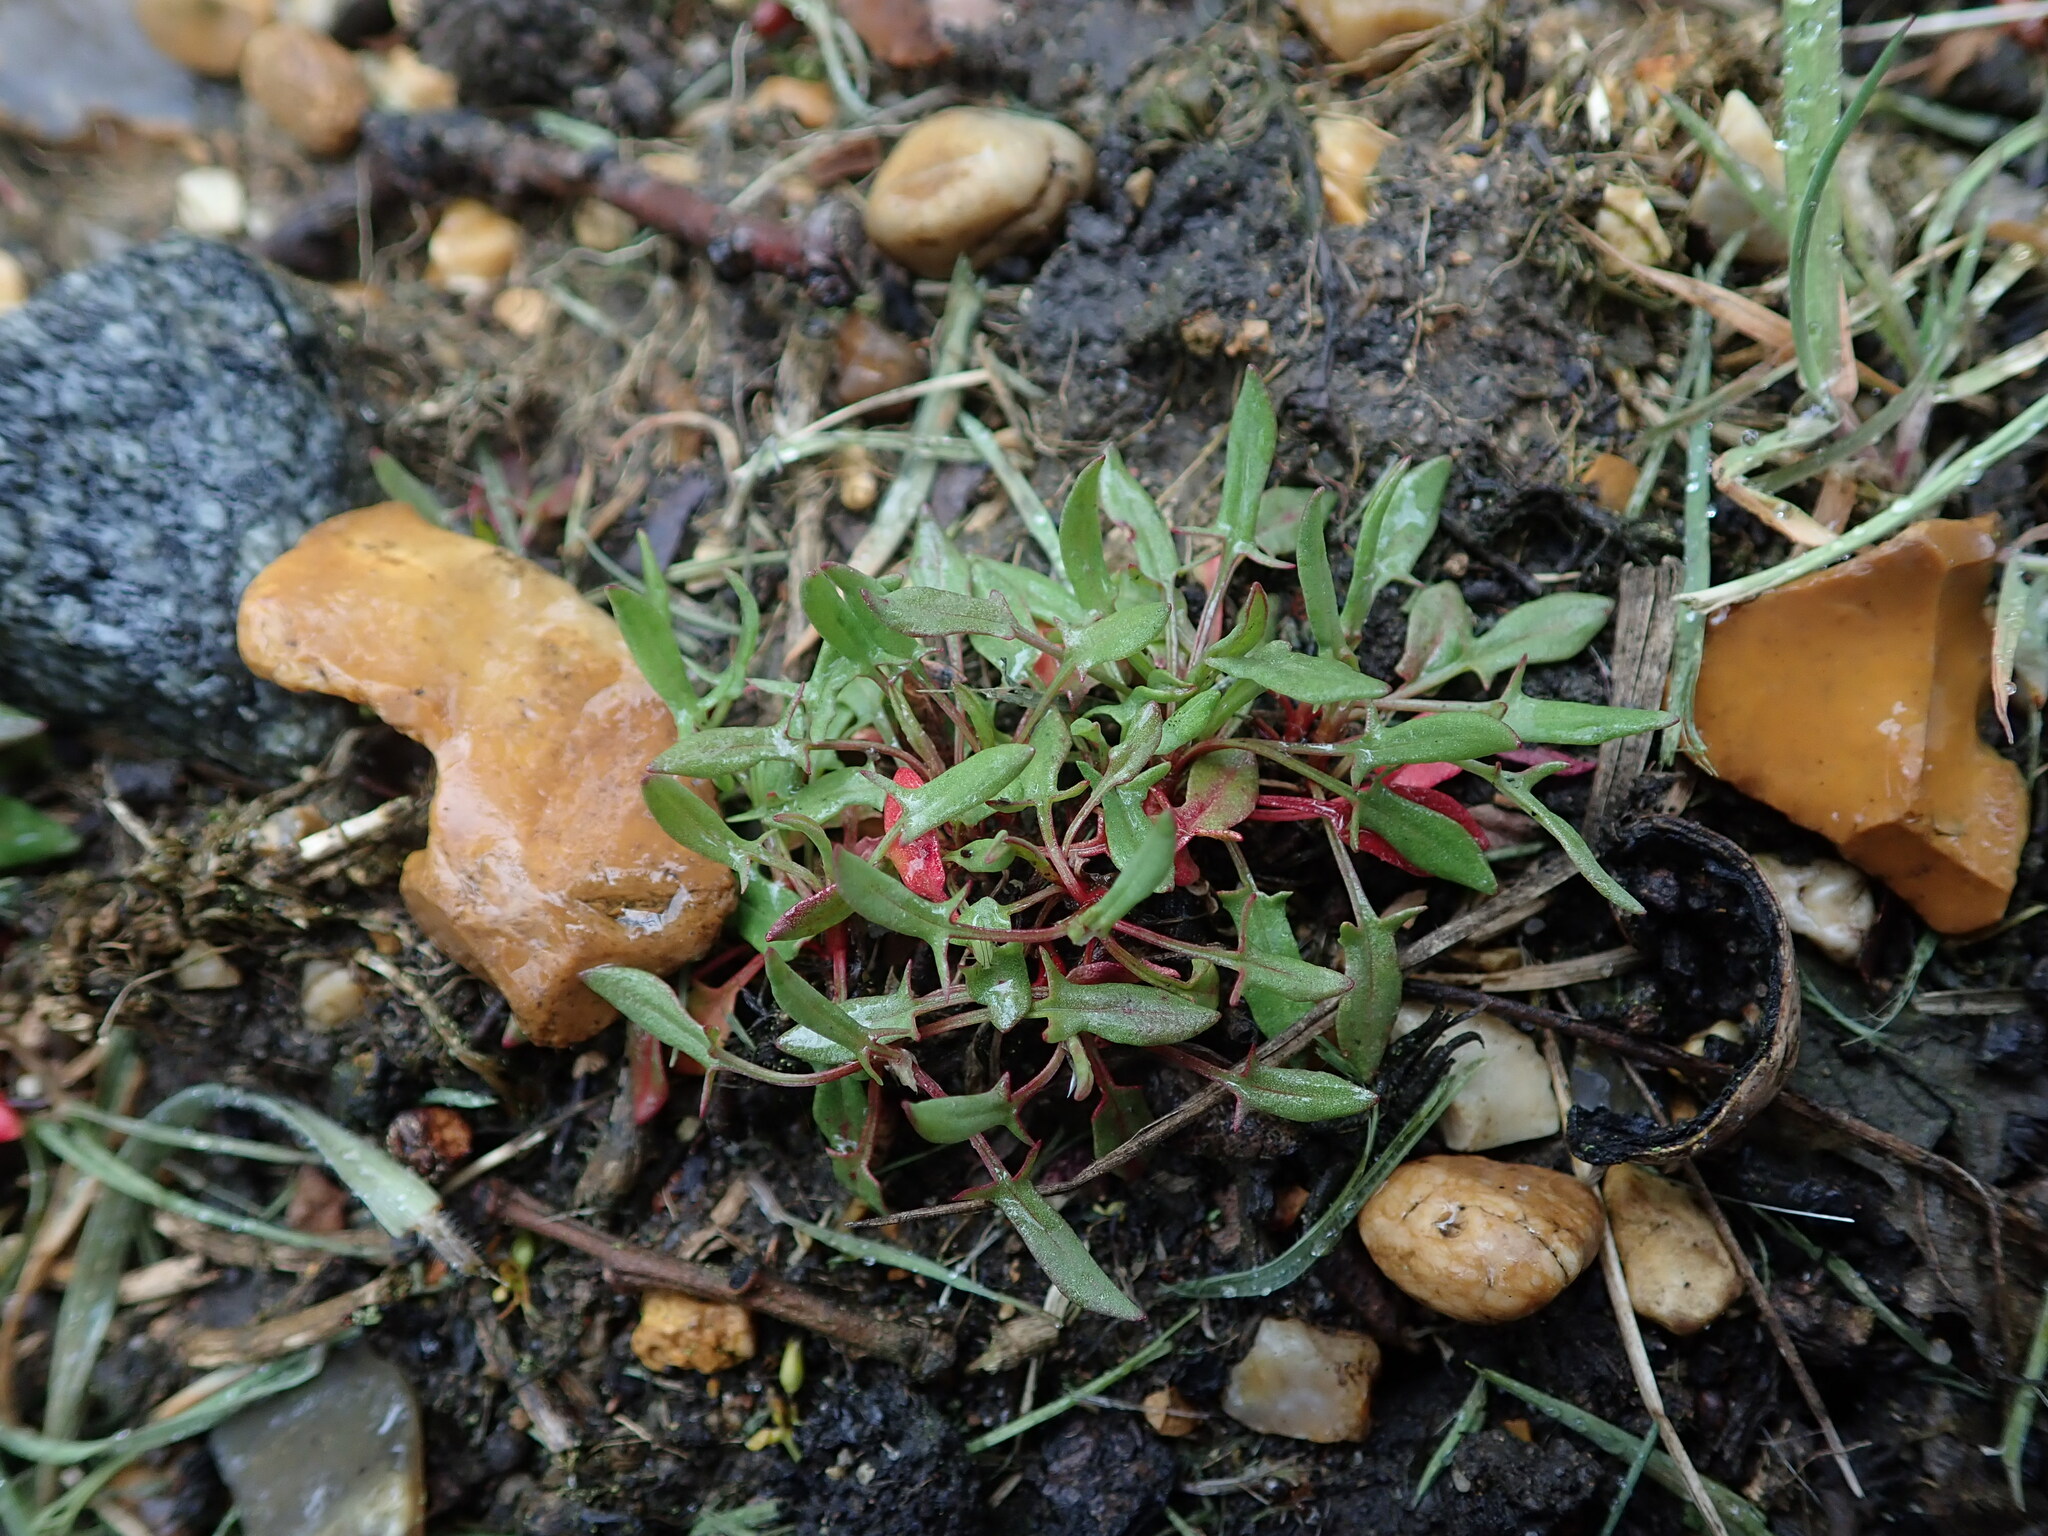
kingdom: Plantae
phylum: Tracheophyta
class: Magnoliopsida
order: Caryophyllales
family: Polygonaceae
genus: Rumex
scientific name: Rumex acetosella
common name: Common sheep sorrel
